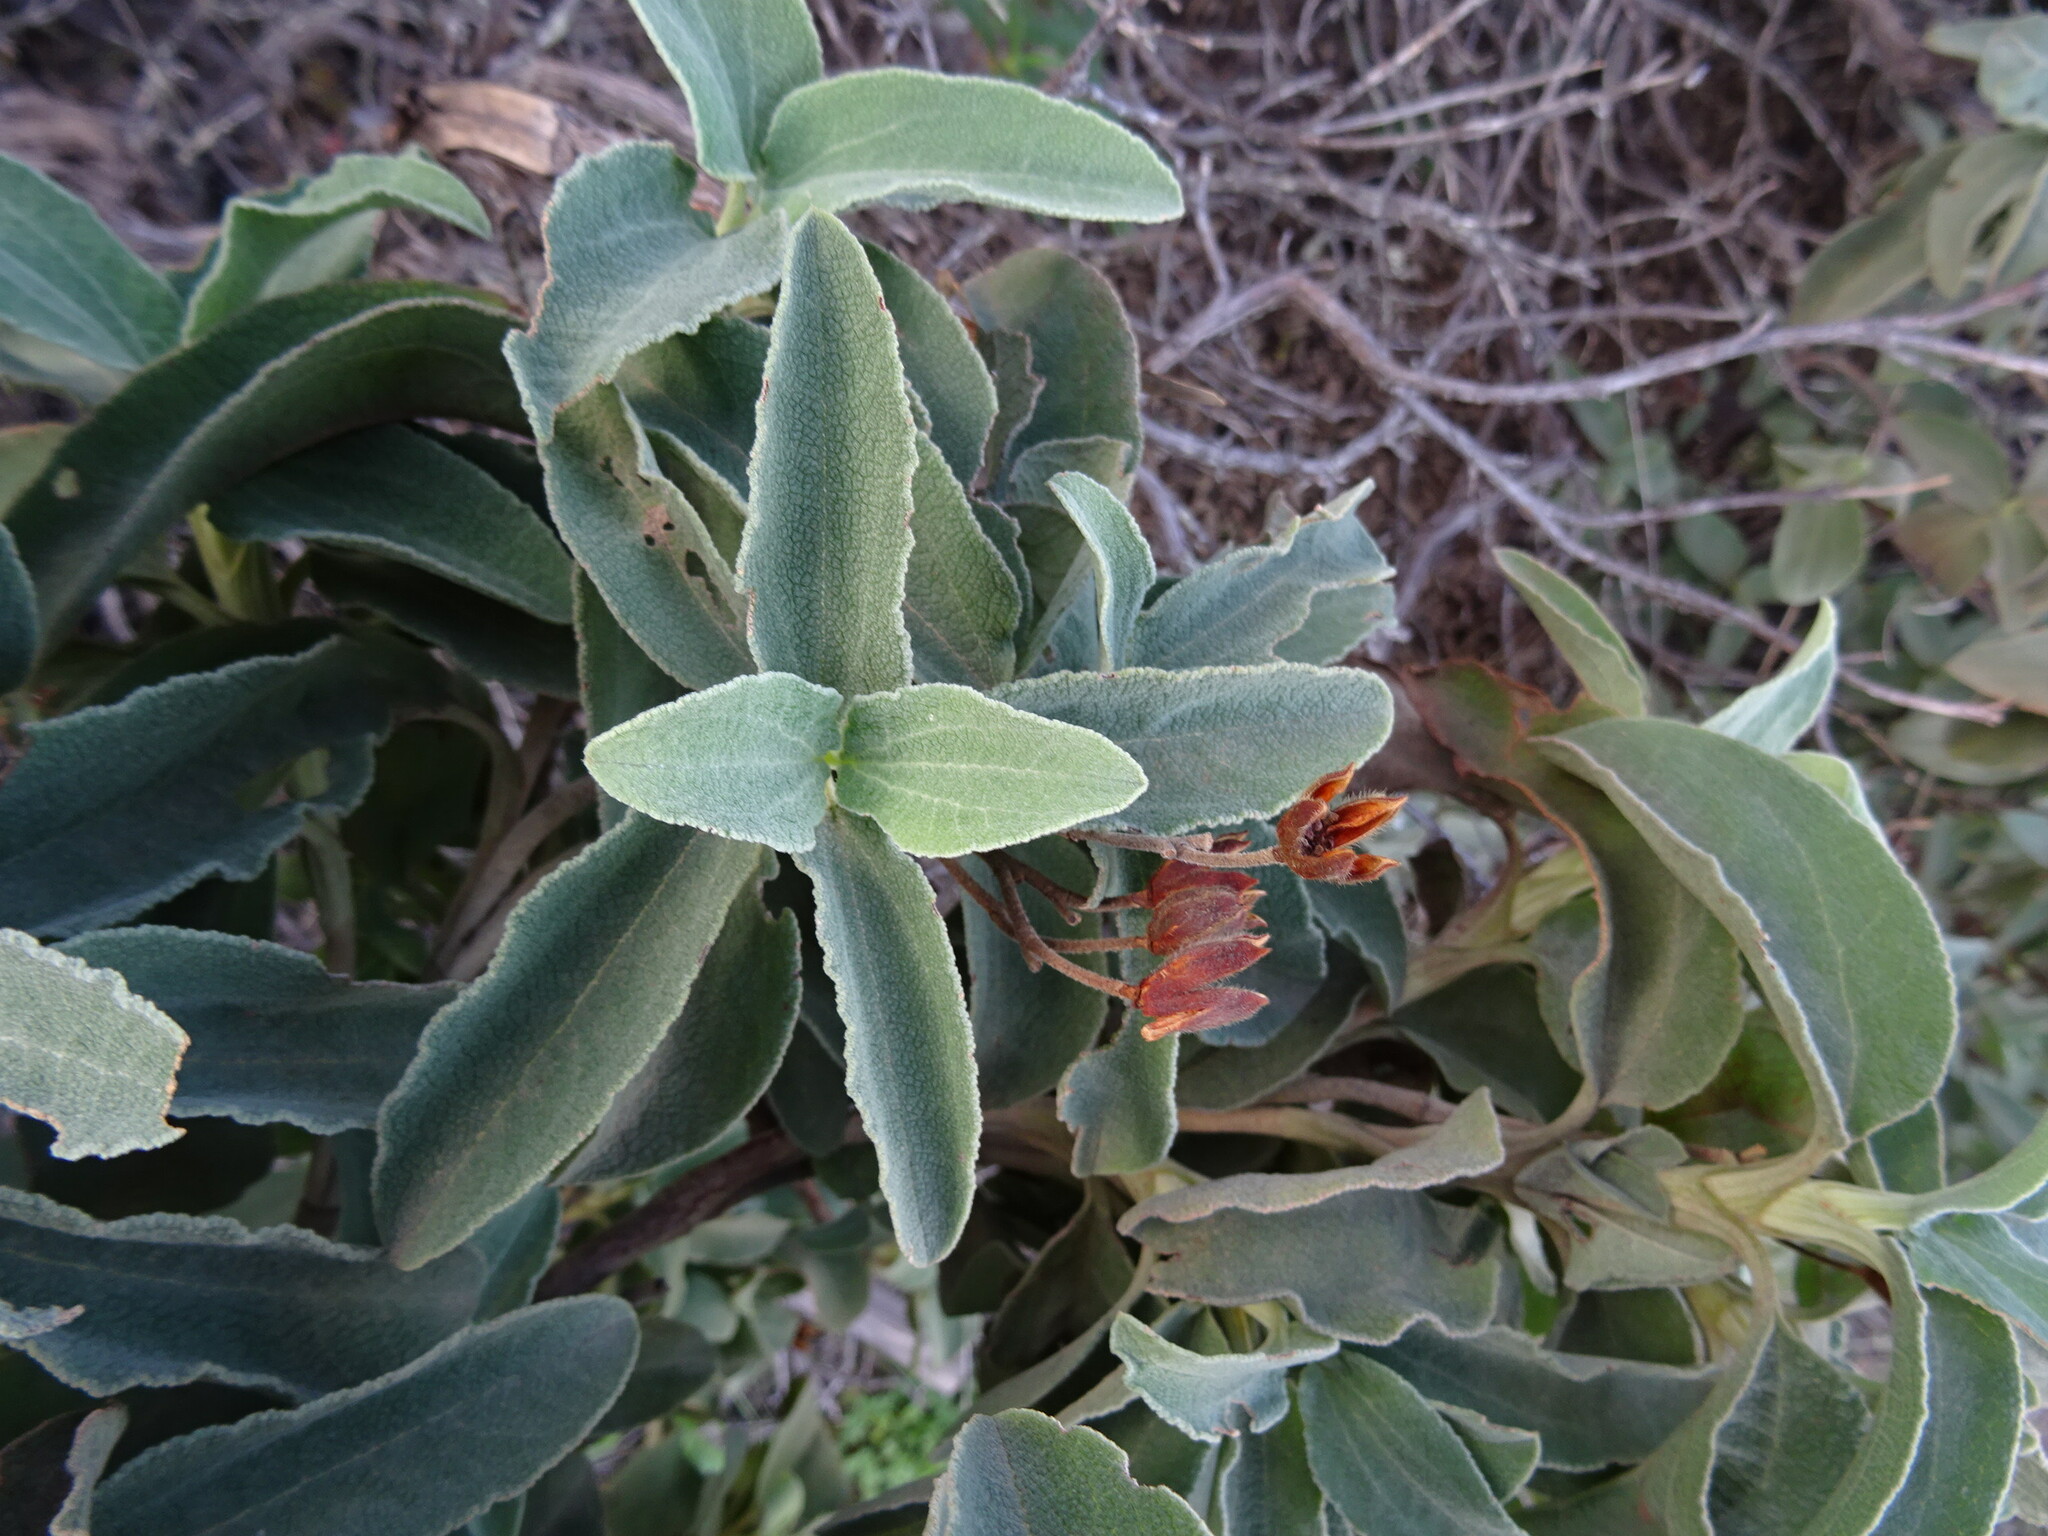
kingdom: Plantae
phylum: Tracheophyta
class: Magnoliopsida
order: Malvales
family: Cistaceae
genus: Cistus
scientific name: Cistus symphytifolius
